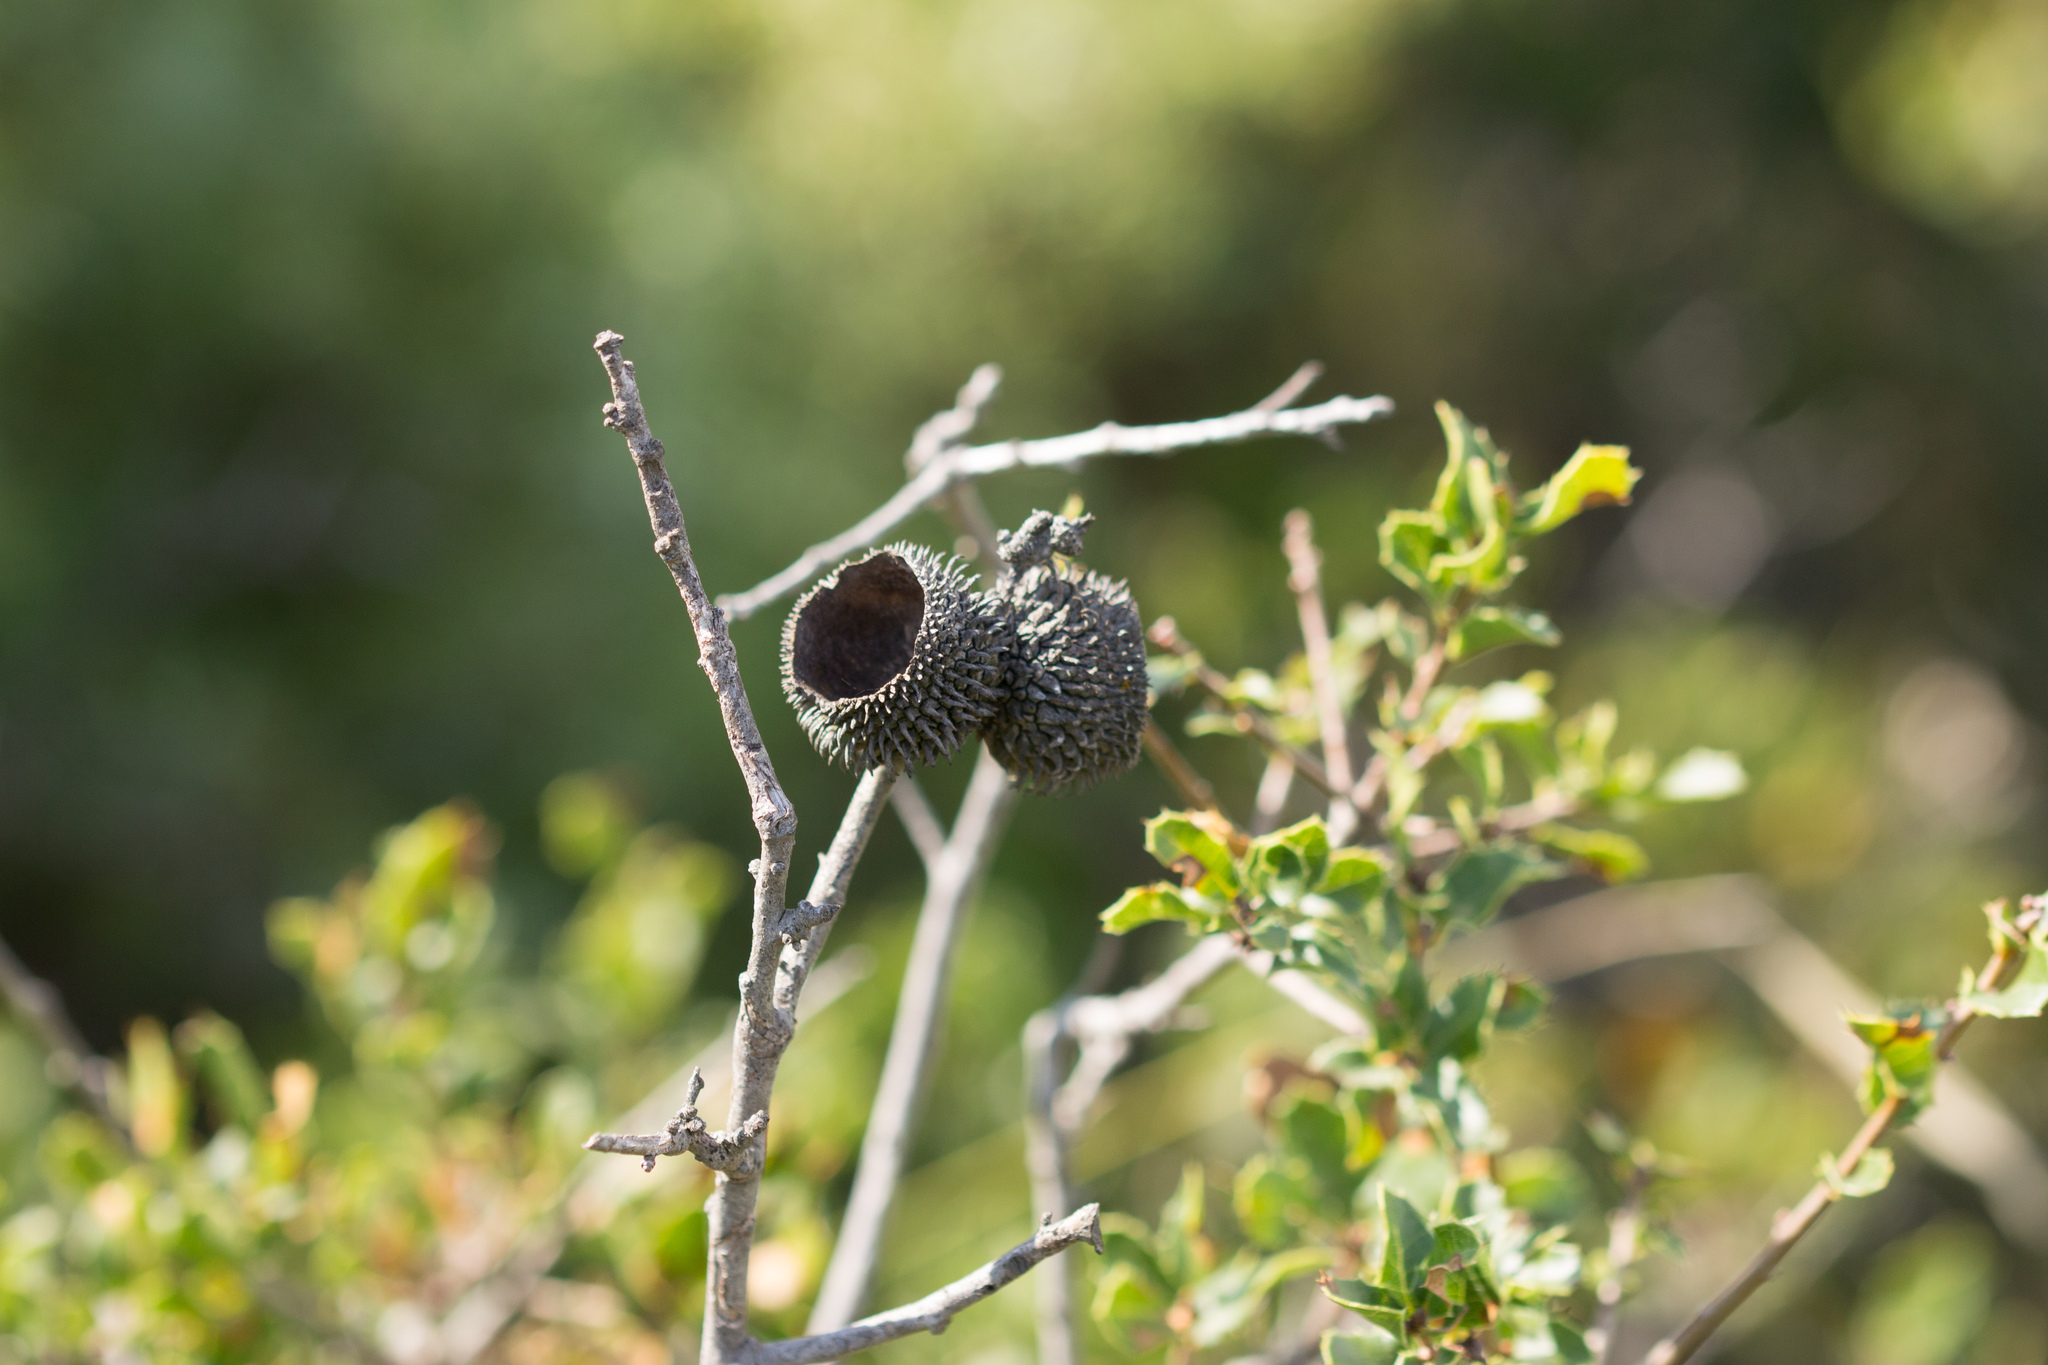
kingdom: Plantae
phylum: Tracheophyta
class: Magnoliopsida
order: Fagales
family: Fagaceae
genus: Quercus
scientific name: Quercus coccifera
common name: Kermes oak
